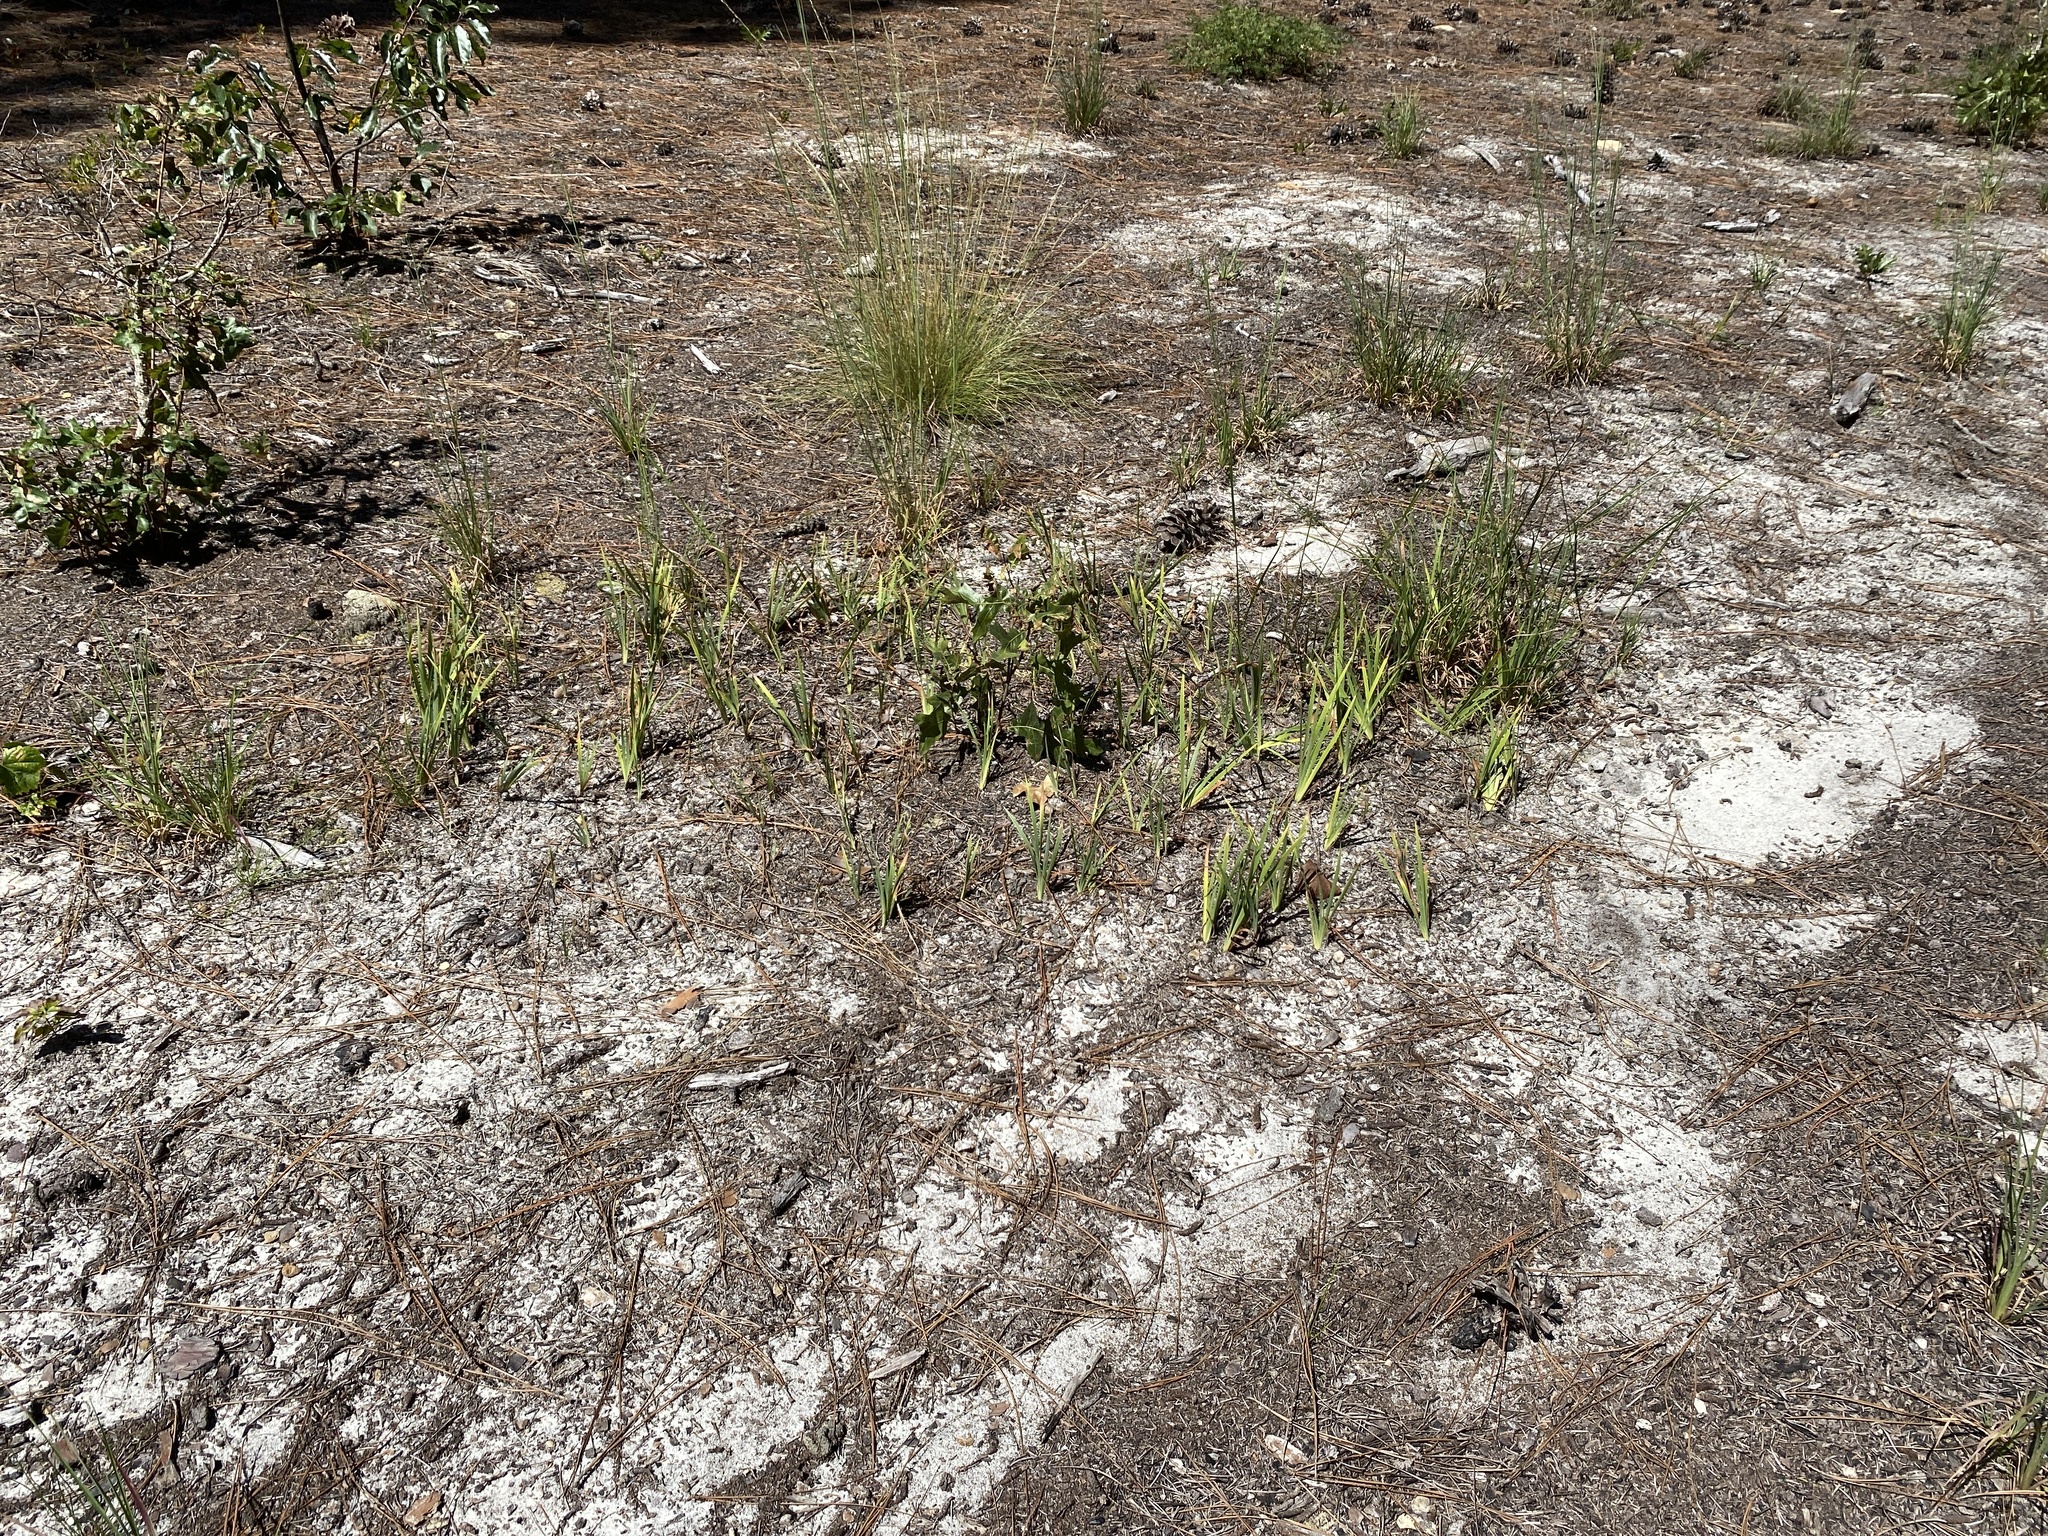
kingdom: Plantae
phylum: Tracheophyta
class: Liliopsida
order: Asparagales
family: Iridaceae
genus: Iris
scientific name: Iris verna
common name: Dwarf iris
